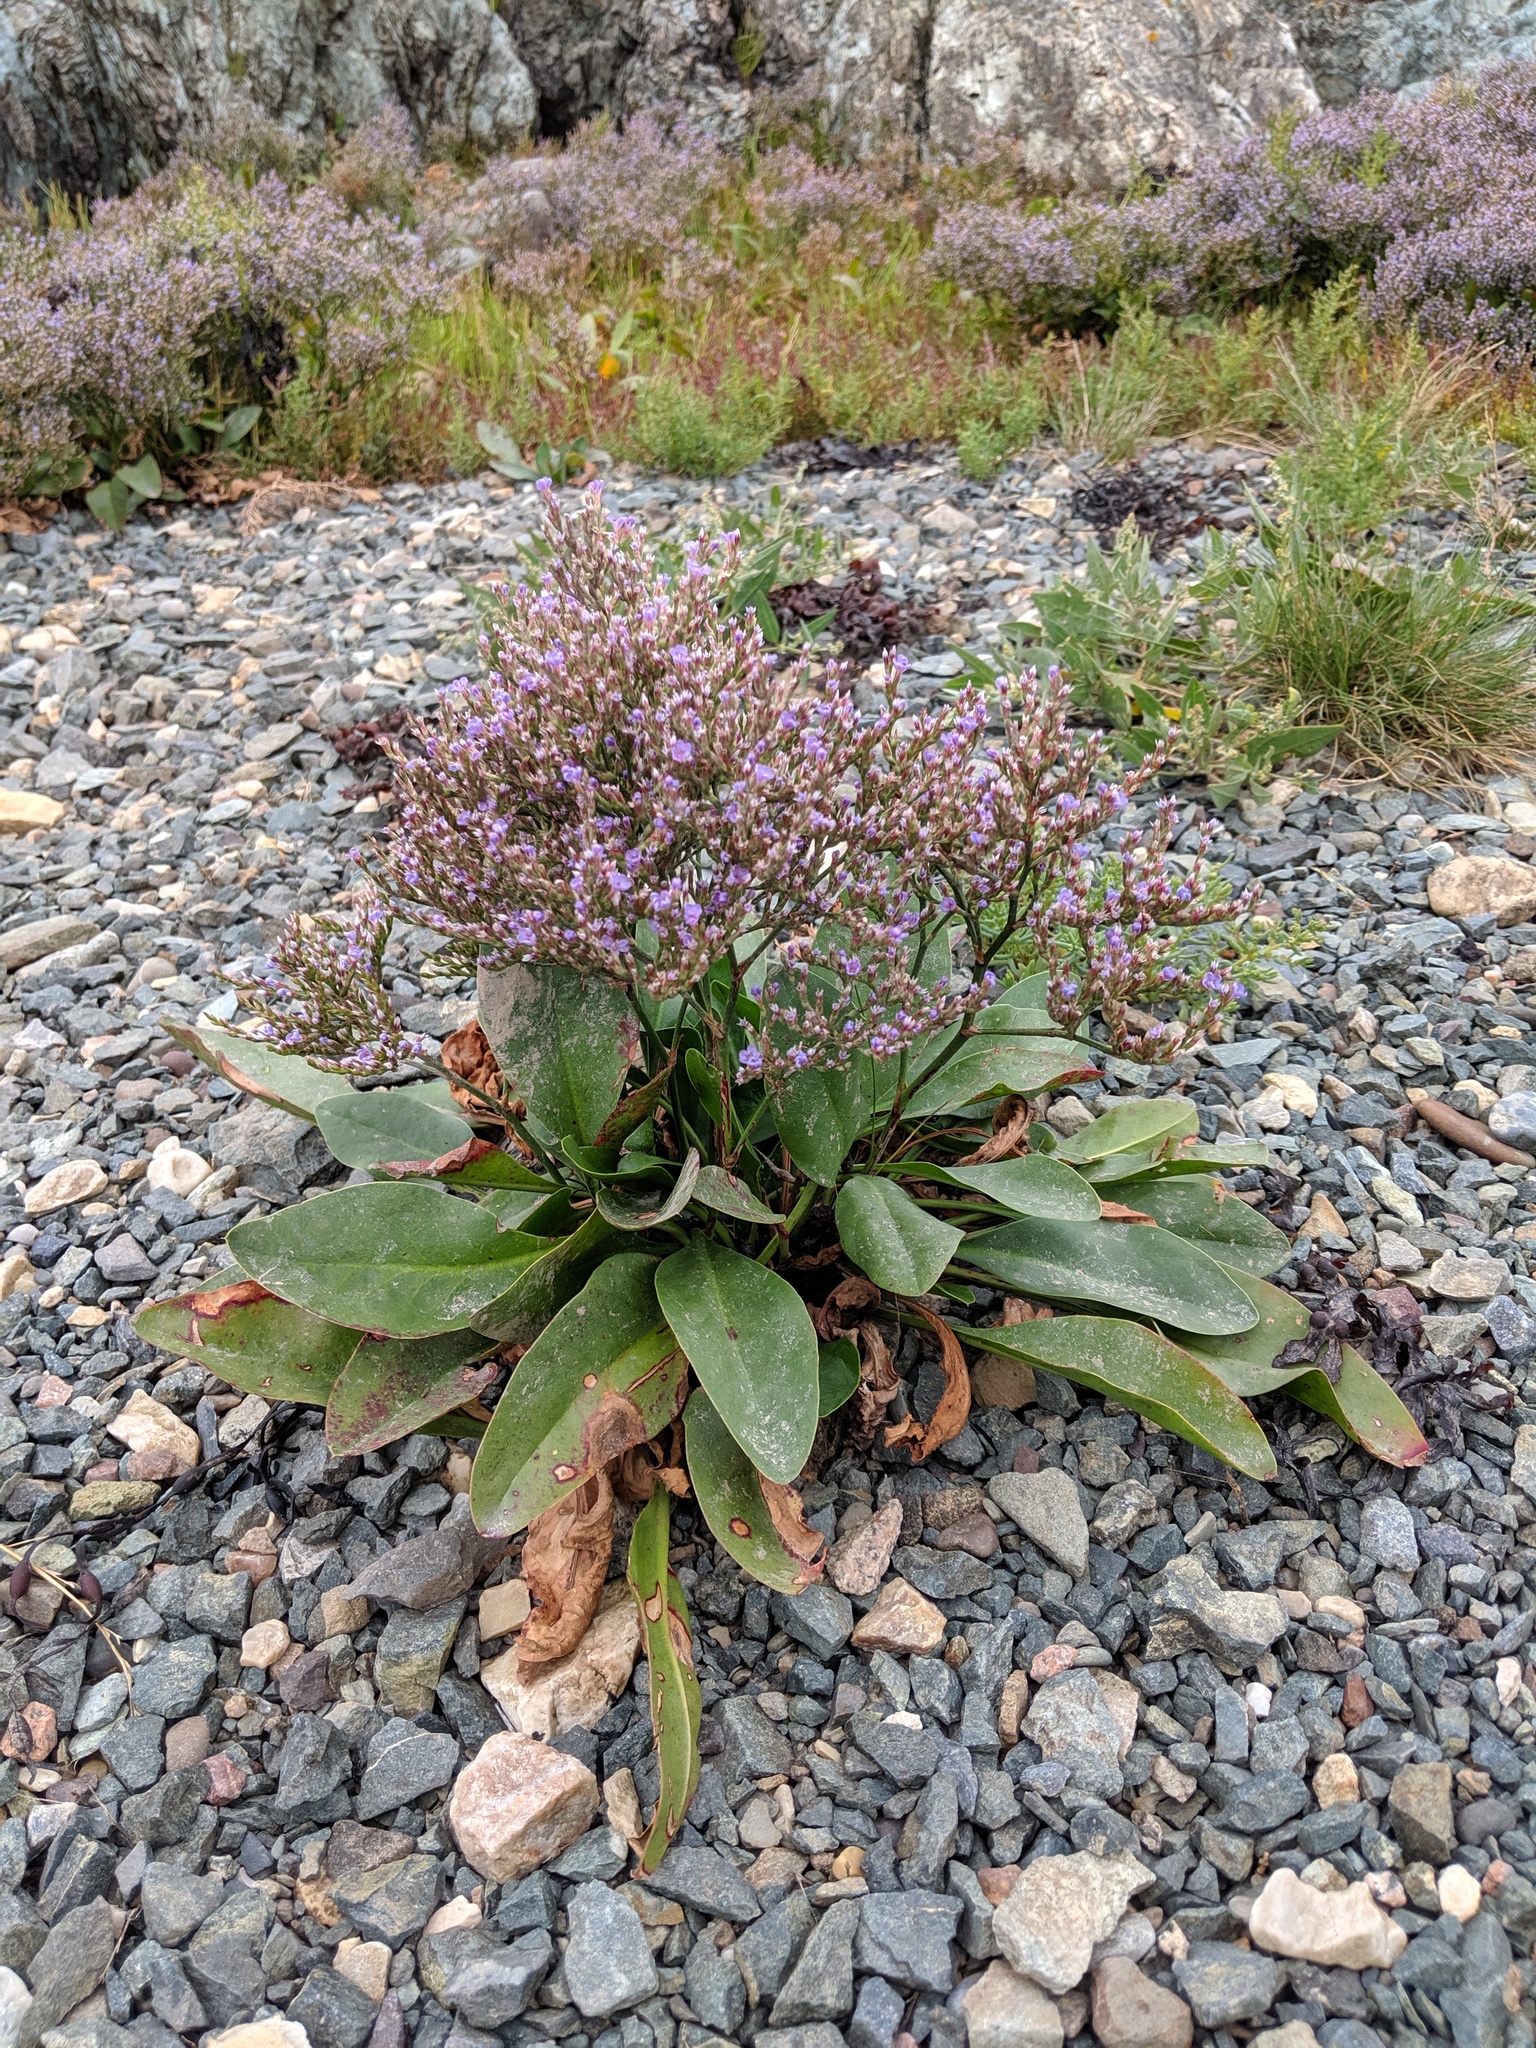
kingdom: Plantae
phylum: Tracheophyta
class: Magnoliopsida
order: Caryophyllales
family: Plumbaginaceae
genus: Limonium
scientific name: Limonium carolinianum
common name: Carolina sea lavender
